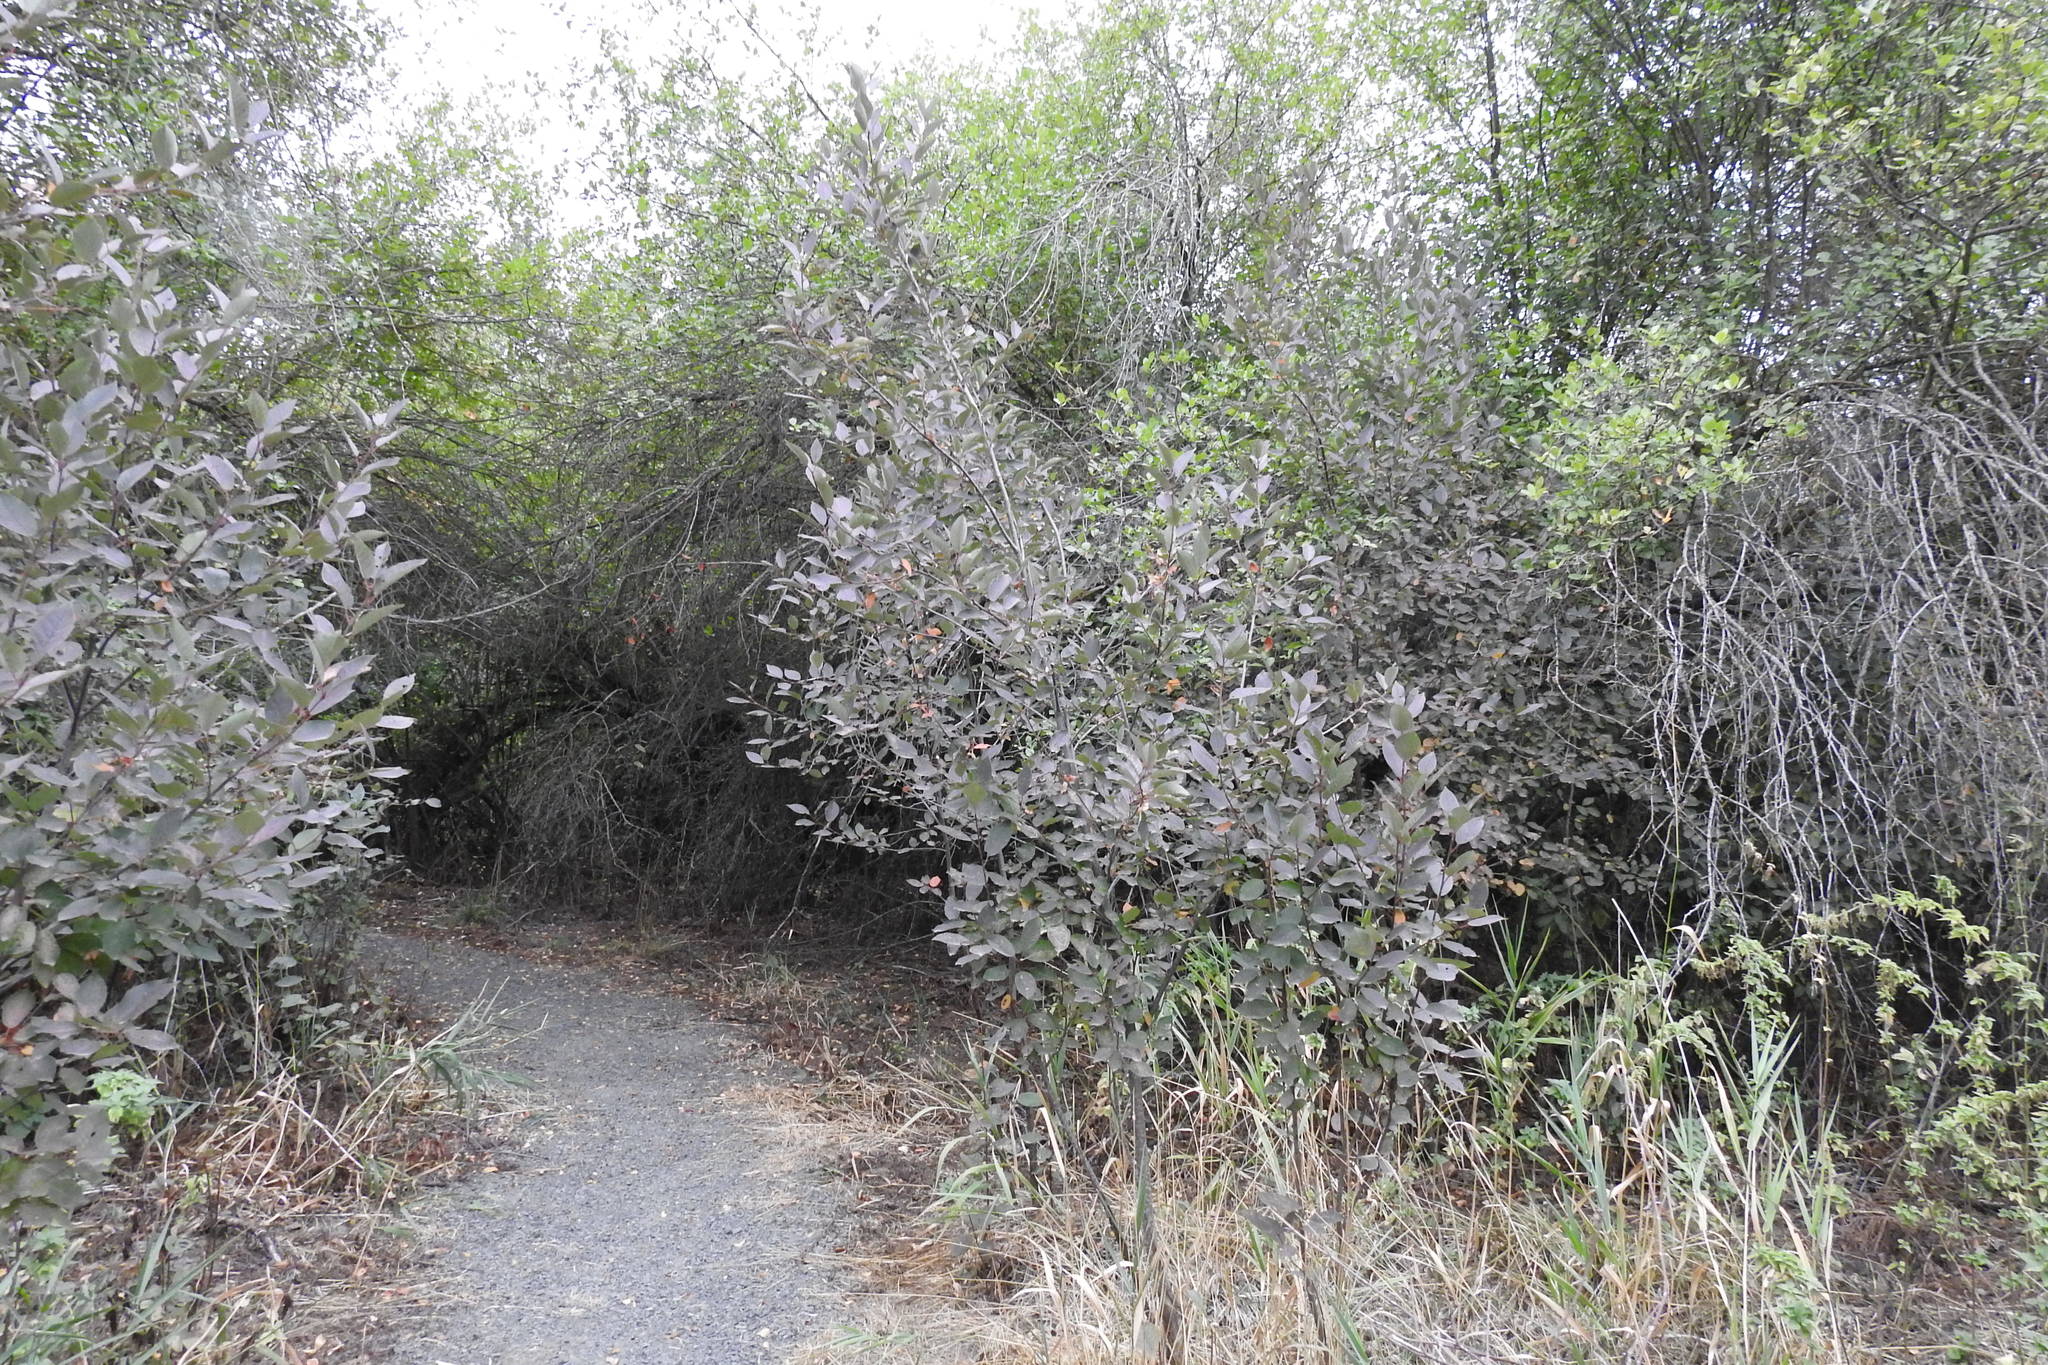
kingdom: Animalia
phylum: Arthropoda
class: Arachnida
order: Trombidiformes
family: Eriophyidae
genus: Eriophyes
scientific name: Eriophyes emarginatae
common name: Plum leaf gall mite
